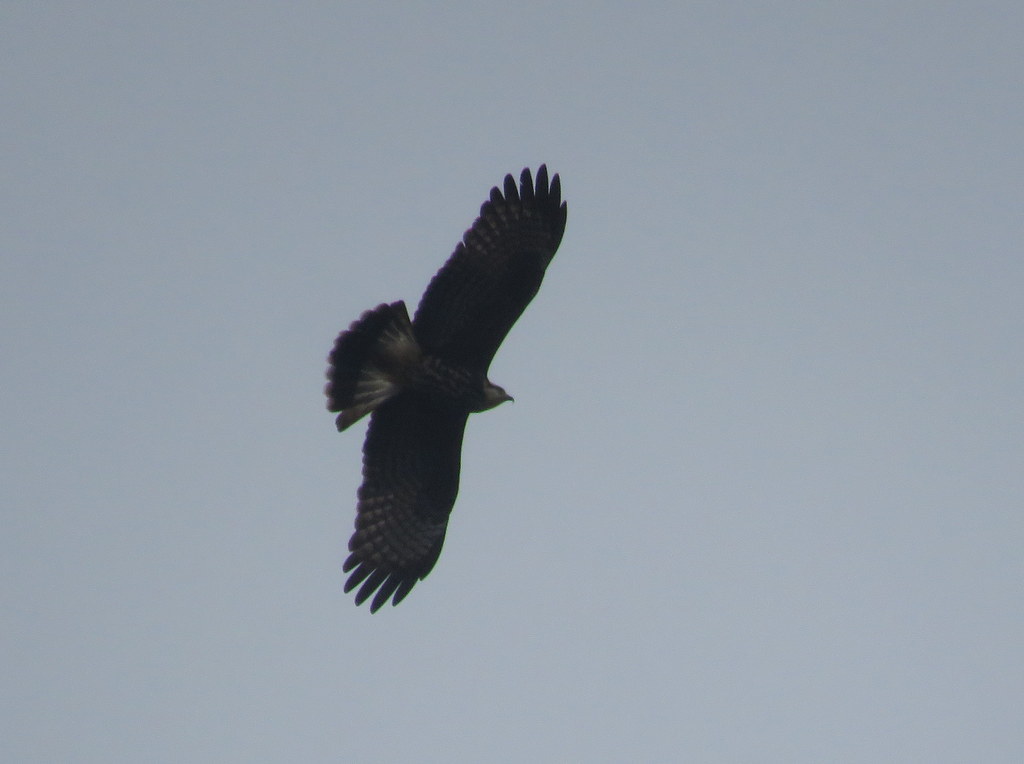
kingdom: Animalia
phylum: Chordata
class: Aves
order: Accipitriformes
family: Accipitridae
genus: Rostrhamus
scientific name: Rostrhamus sociabilis
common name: Snail kite
